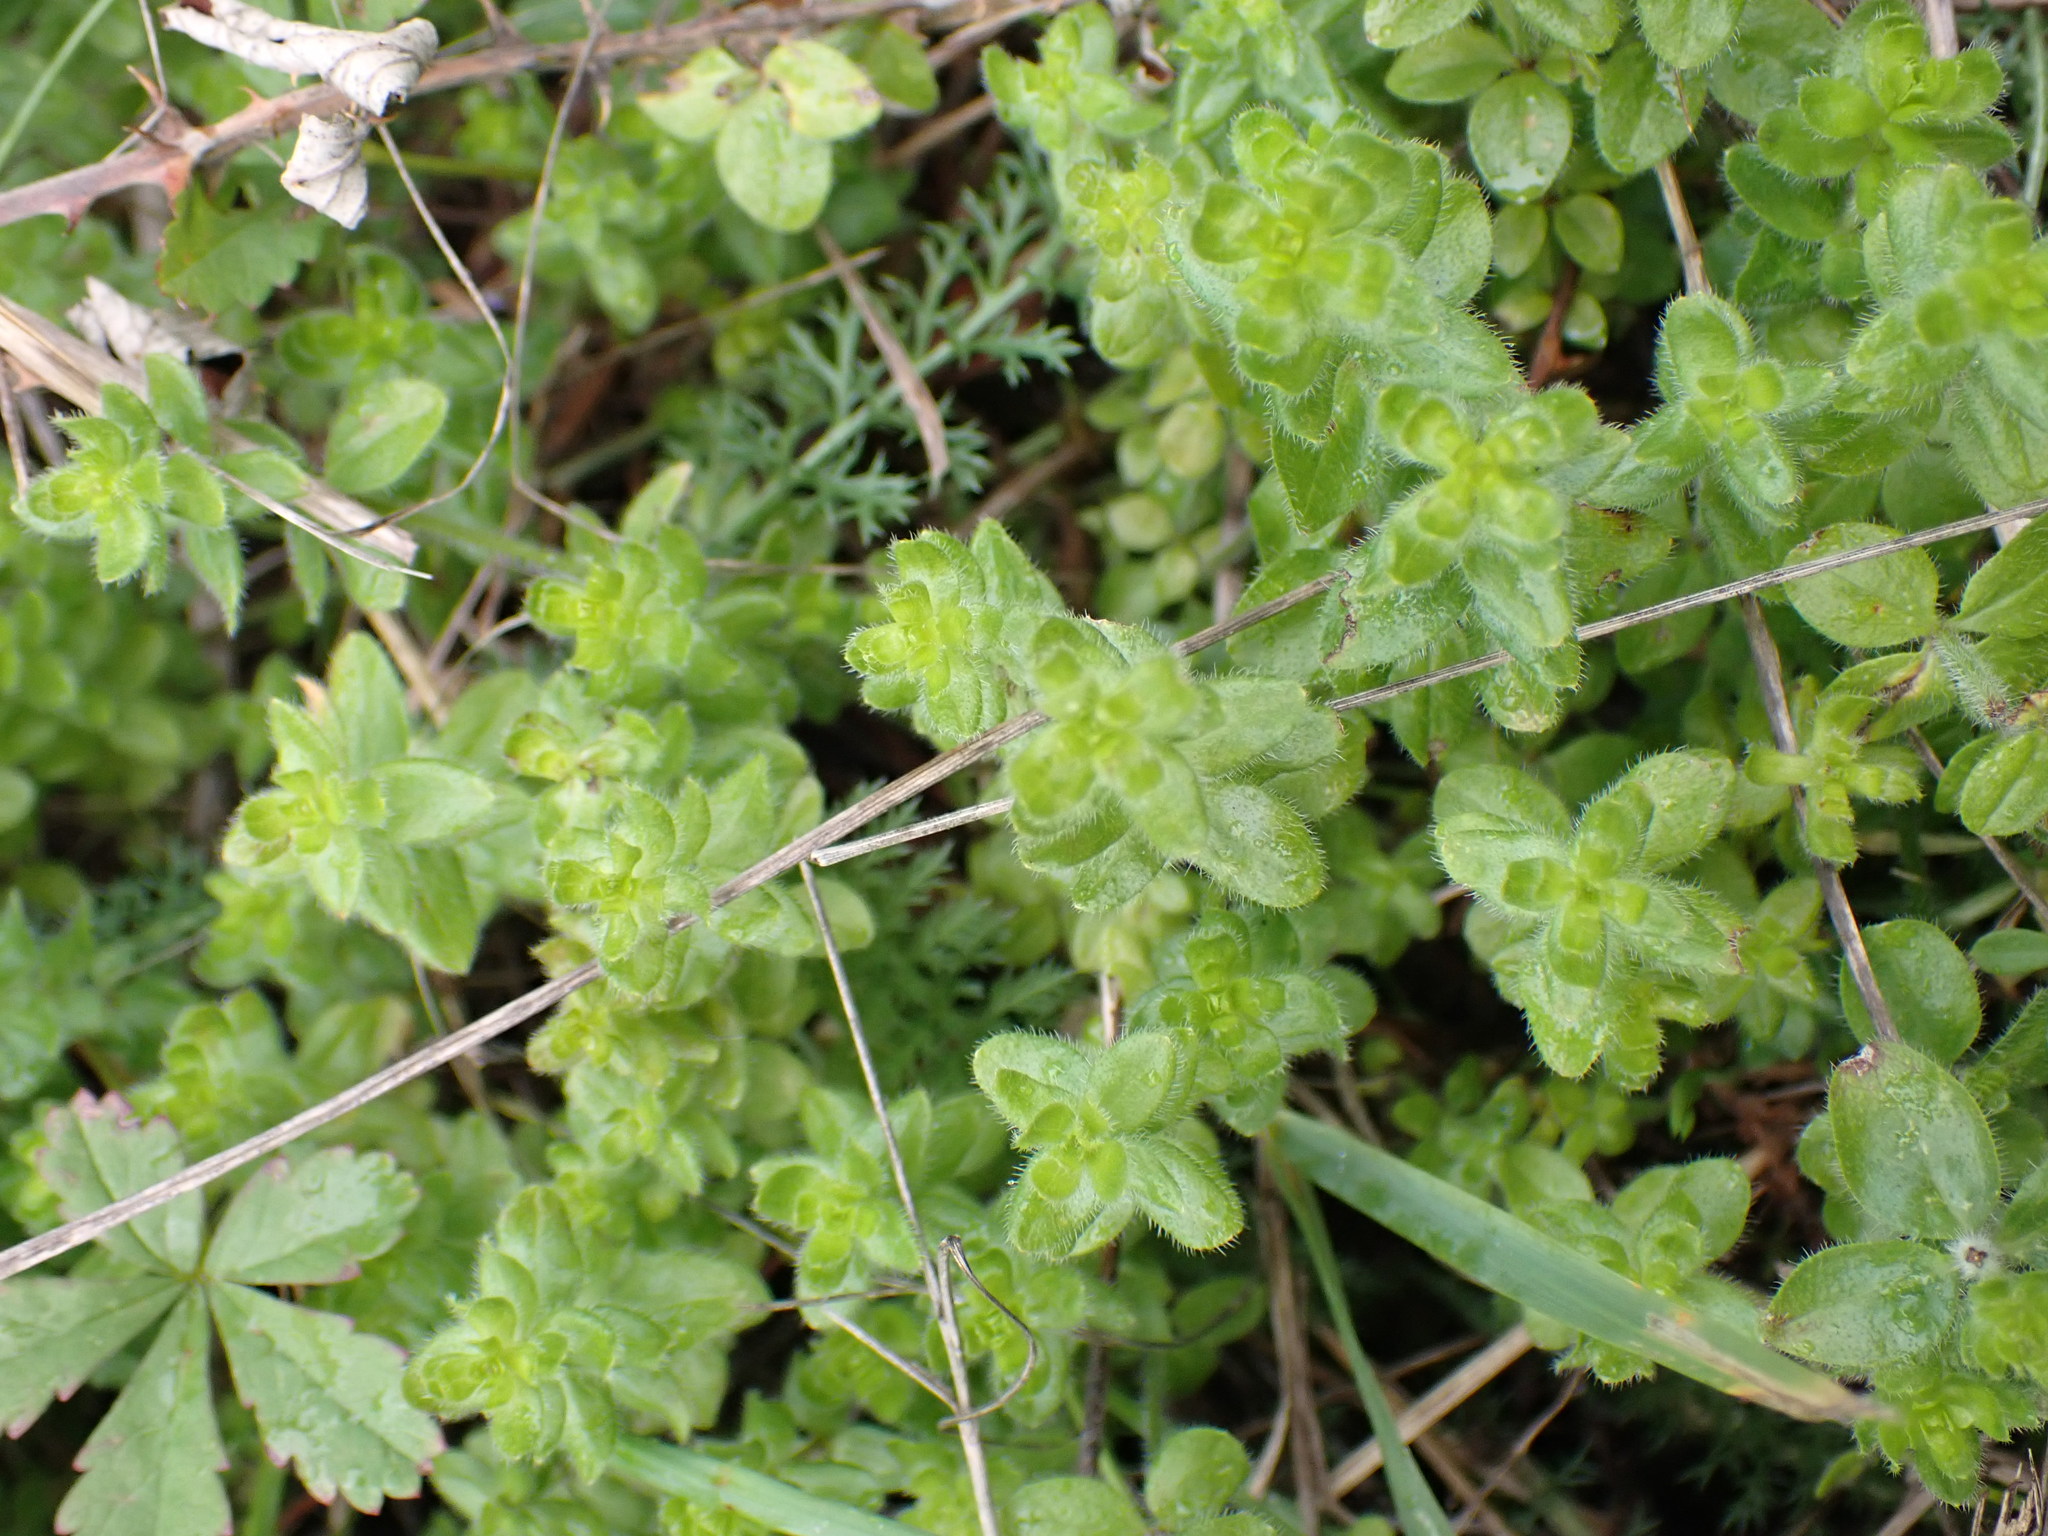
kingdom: Plantae
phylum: Tracheophyta
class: Magnoliopsida
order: Gentianales
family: Rubiaceae
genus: Cruciata
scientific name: Cruciata laevipes
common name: Crosswort
